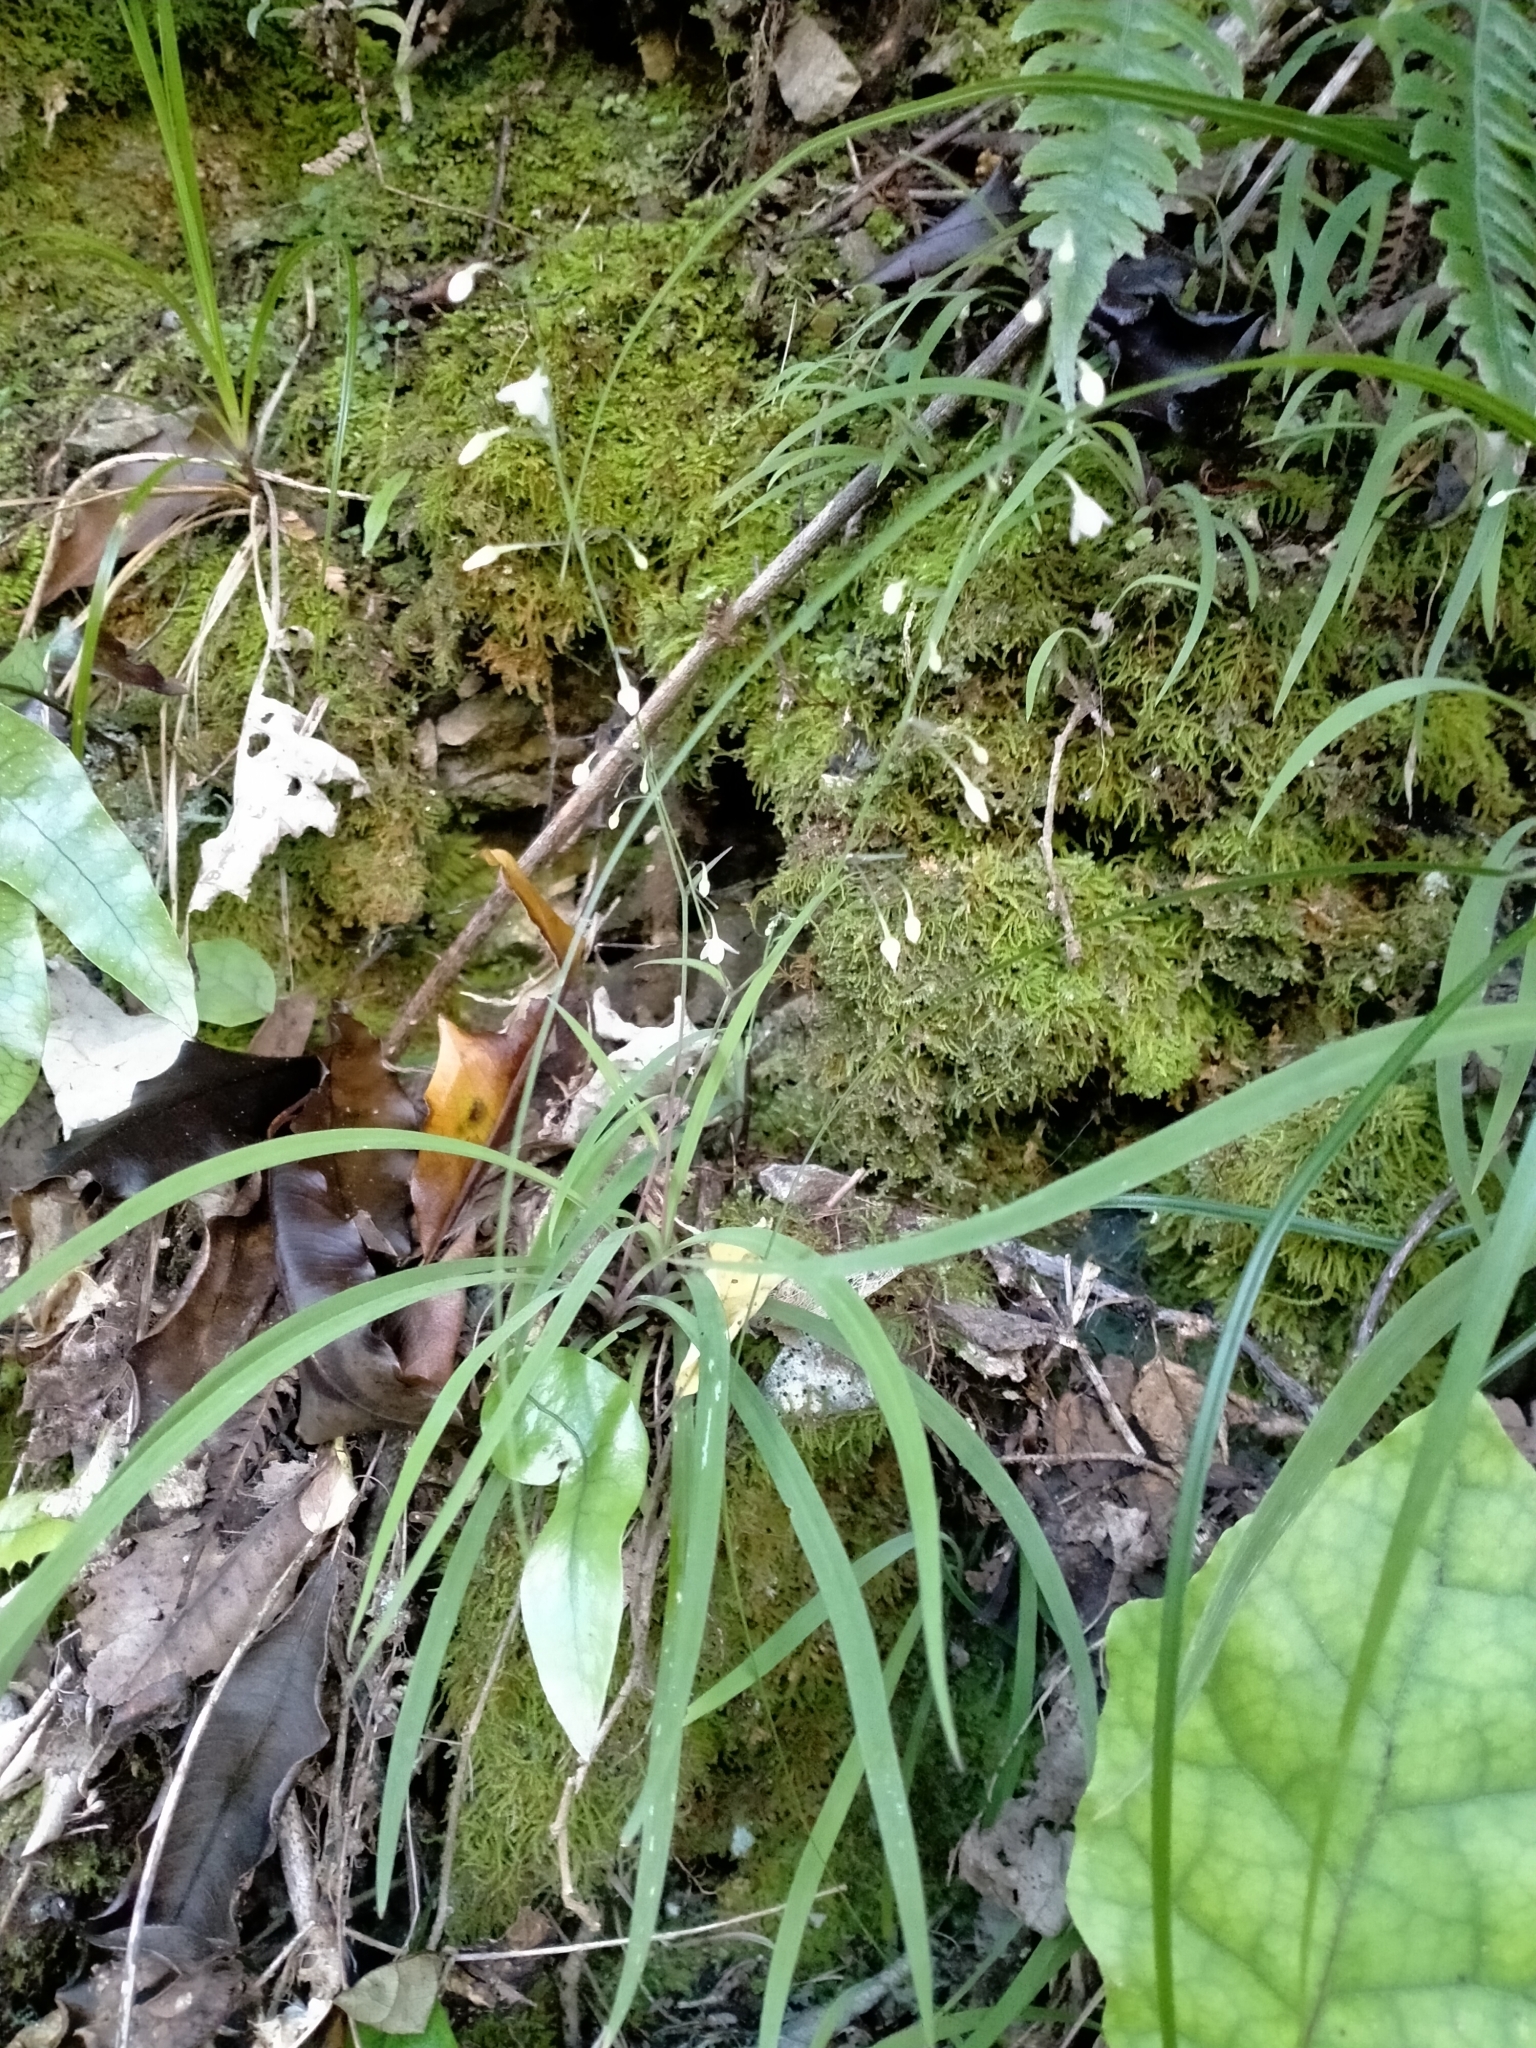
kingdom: Plantae
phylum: Tracheophyta
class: Liliopsida
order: Asparagales
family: Asparagaceae
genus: Arthropodium
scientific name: Arthropodium candidum
